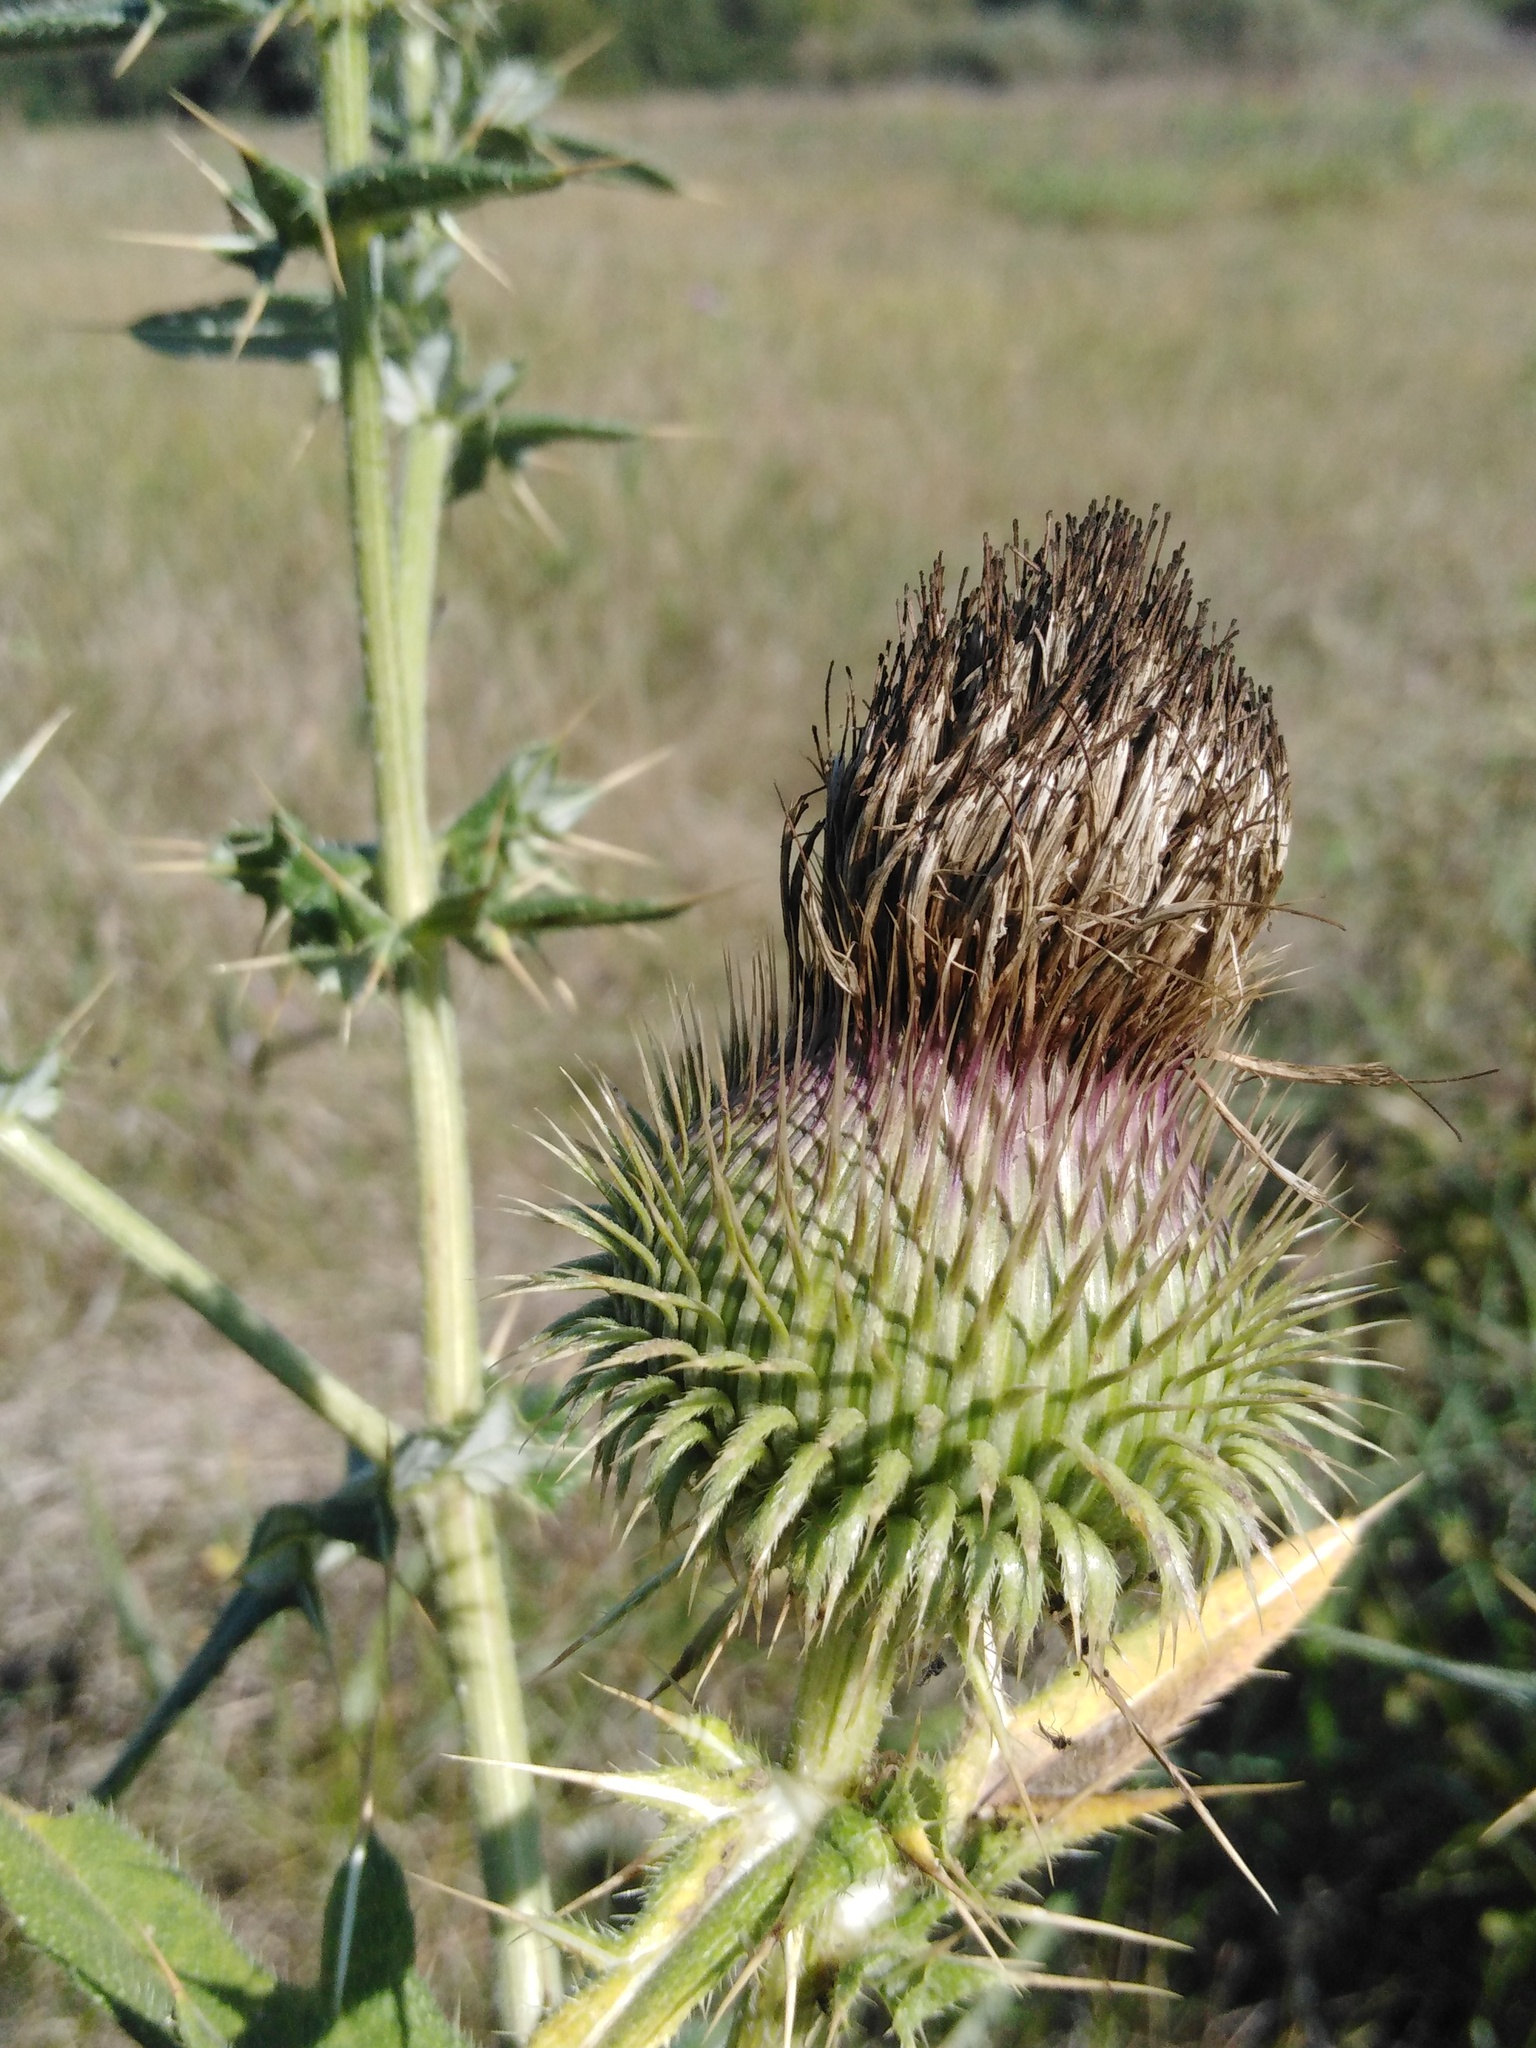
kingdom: Plantae
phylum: Tracheophyta
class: Magnoliopsida
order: Asterales
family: Asteraceae
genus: Cirsium
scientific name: Cirsium serrulatum
